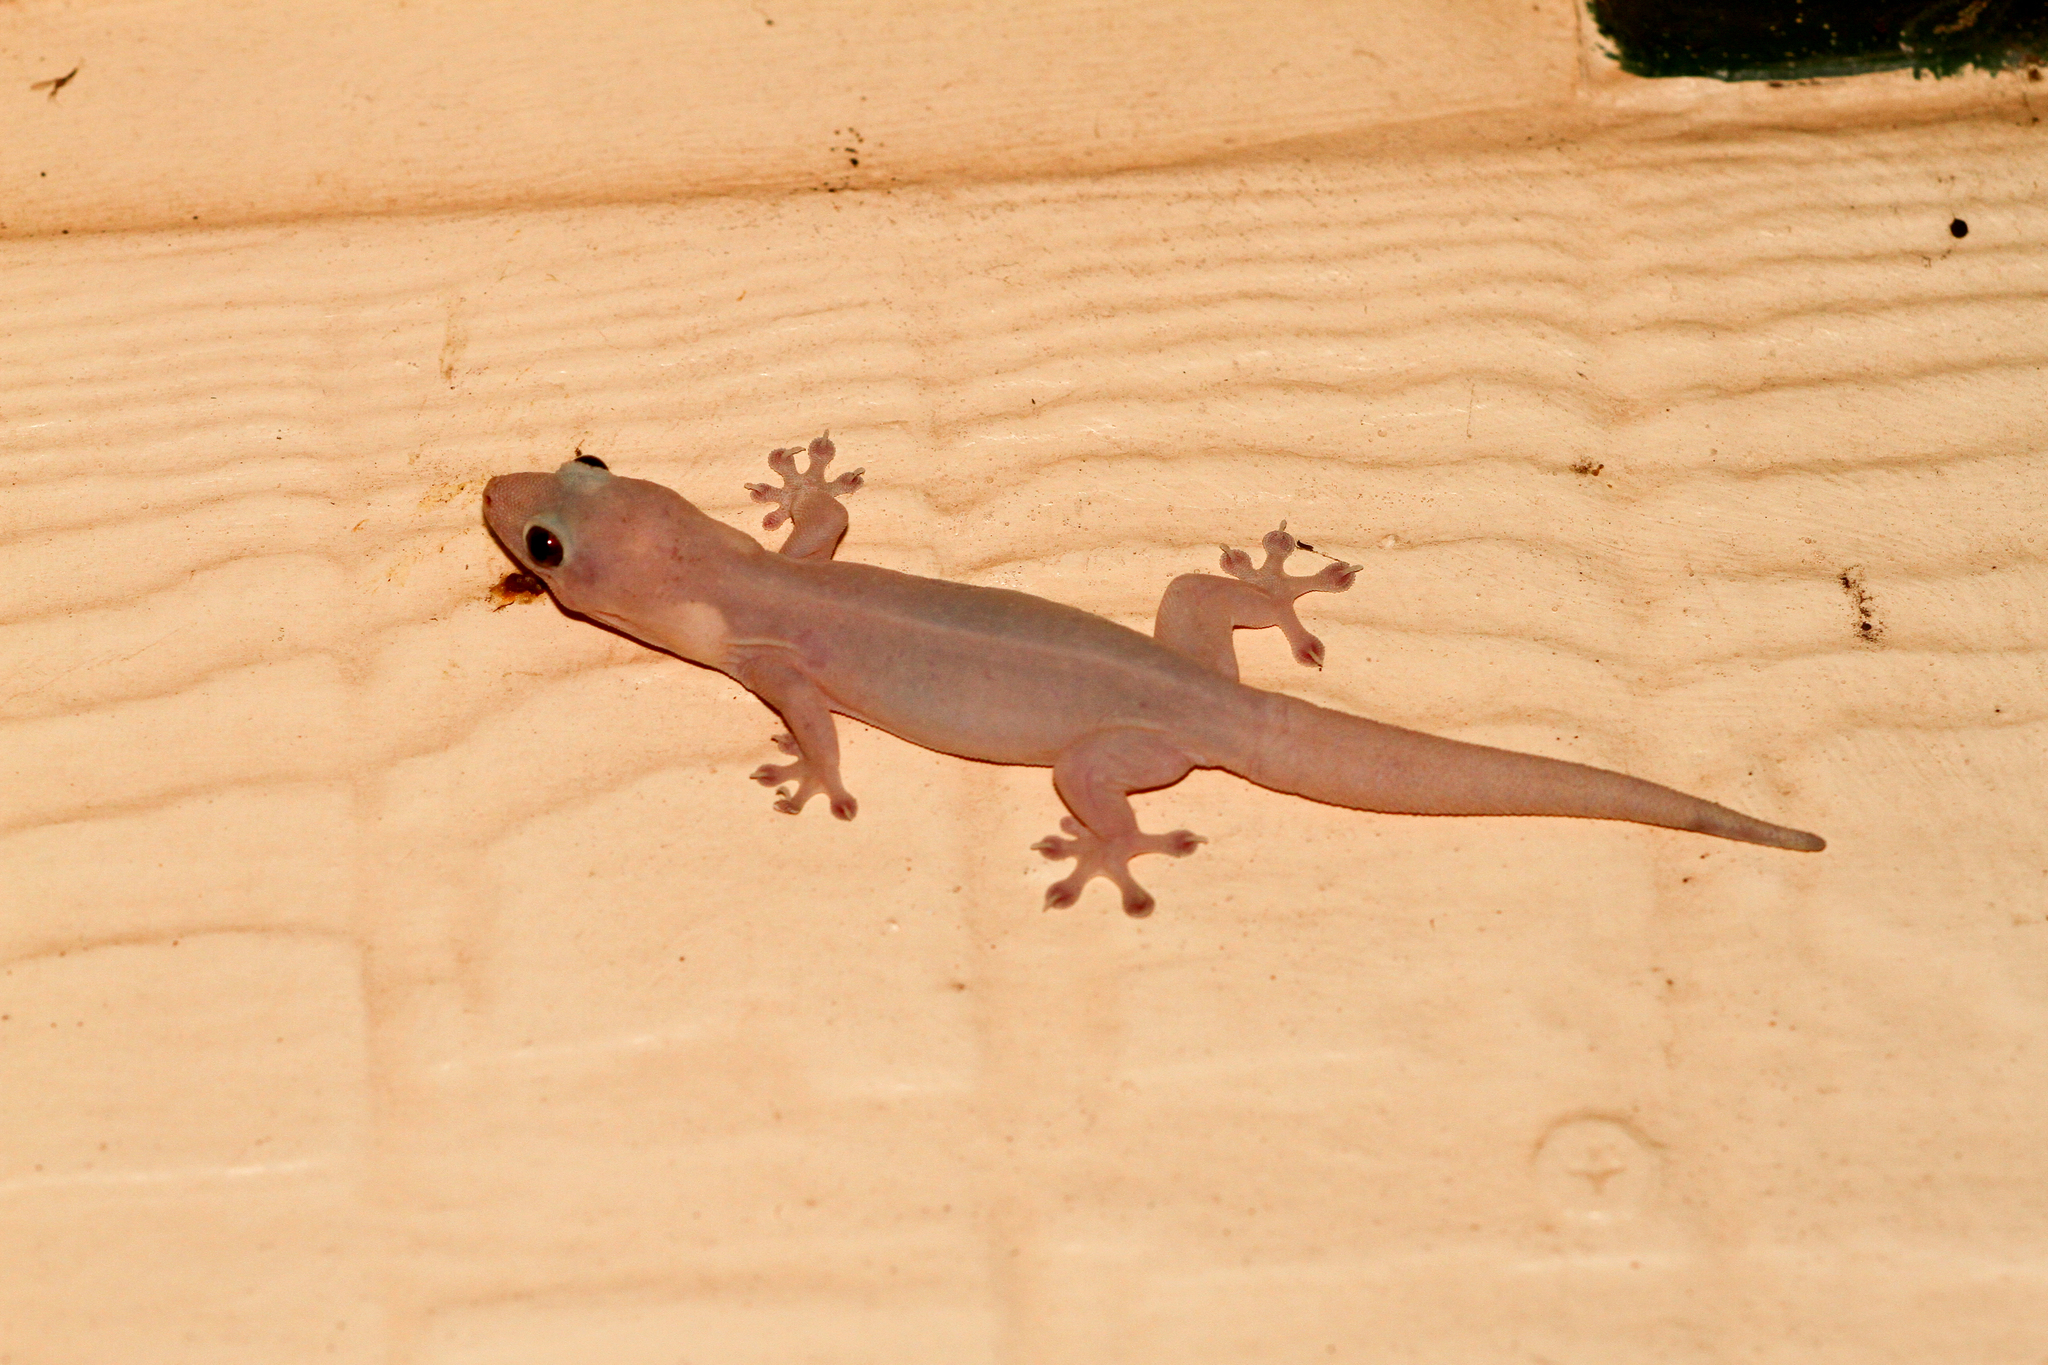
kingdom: Animalia
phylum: Chordata
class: Squamata
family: Gekkonidae
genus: Gehyra
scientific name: Gehyra australis
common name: House gecko
